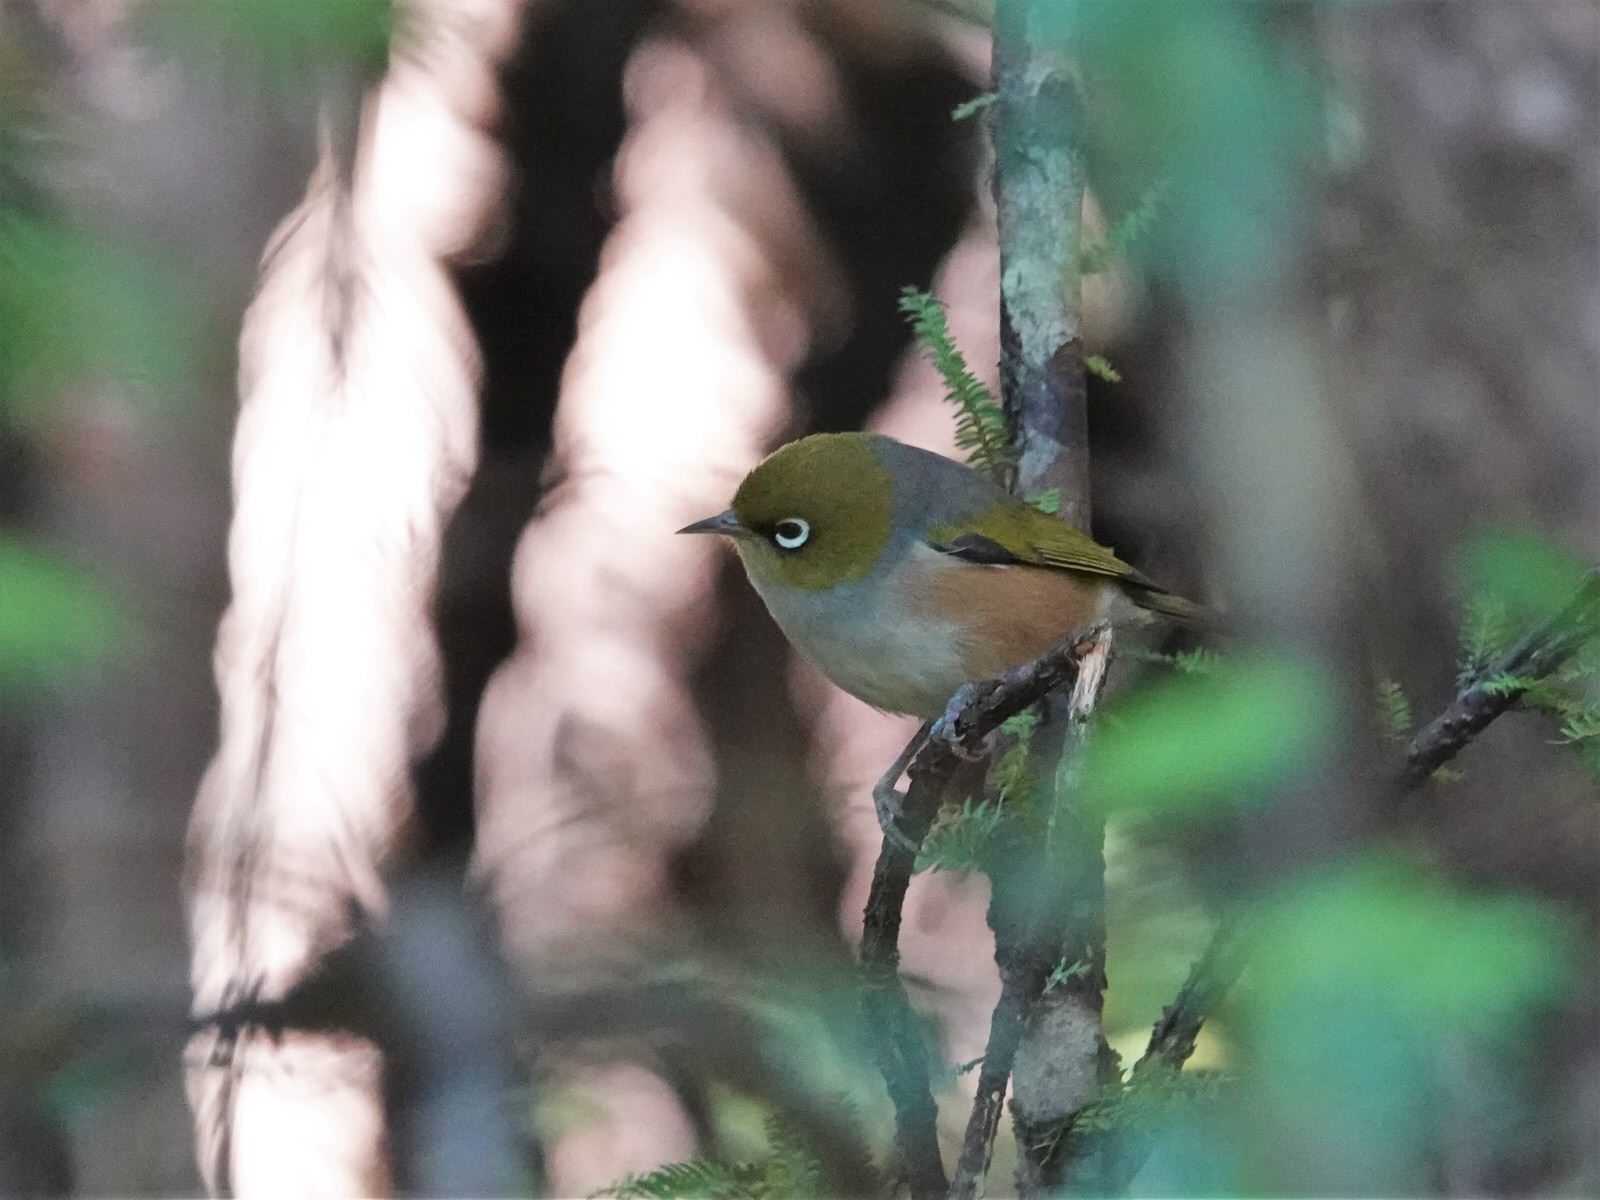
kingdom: Animalia
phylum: Chordata
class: Aves
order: Passeriformes
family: Zosteropidae
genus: Zosterops
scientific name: Zosterops lateralis
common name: Silvereye
